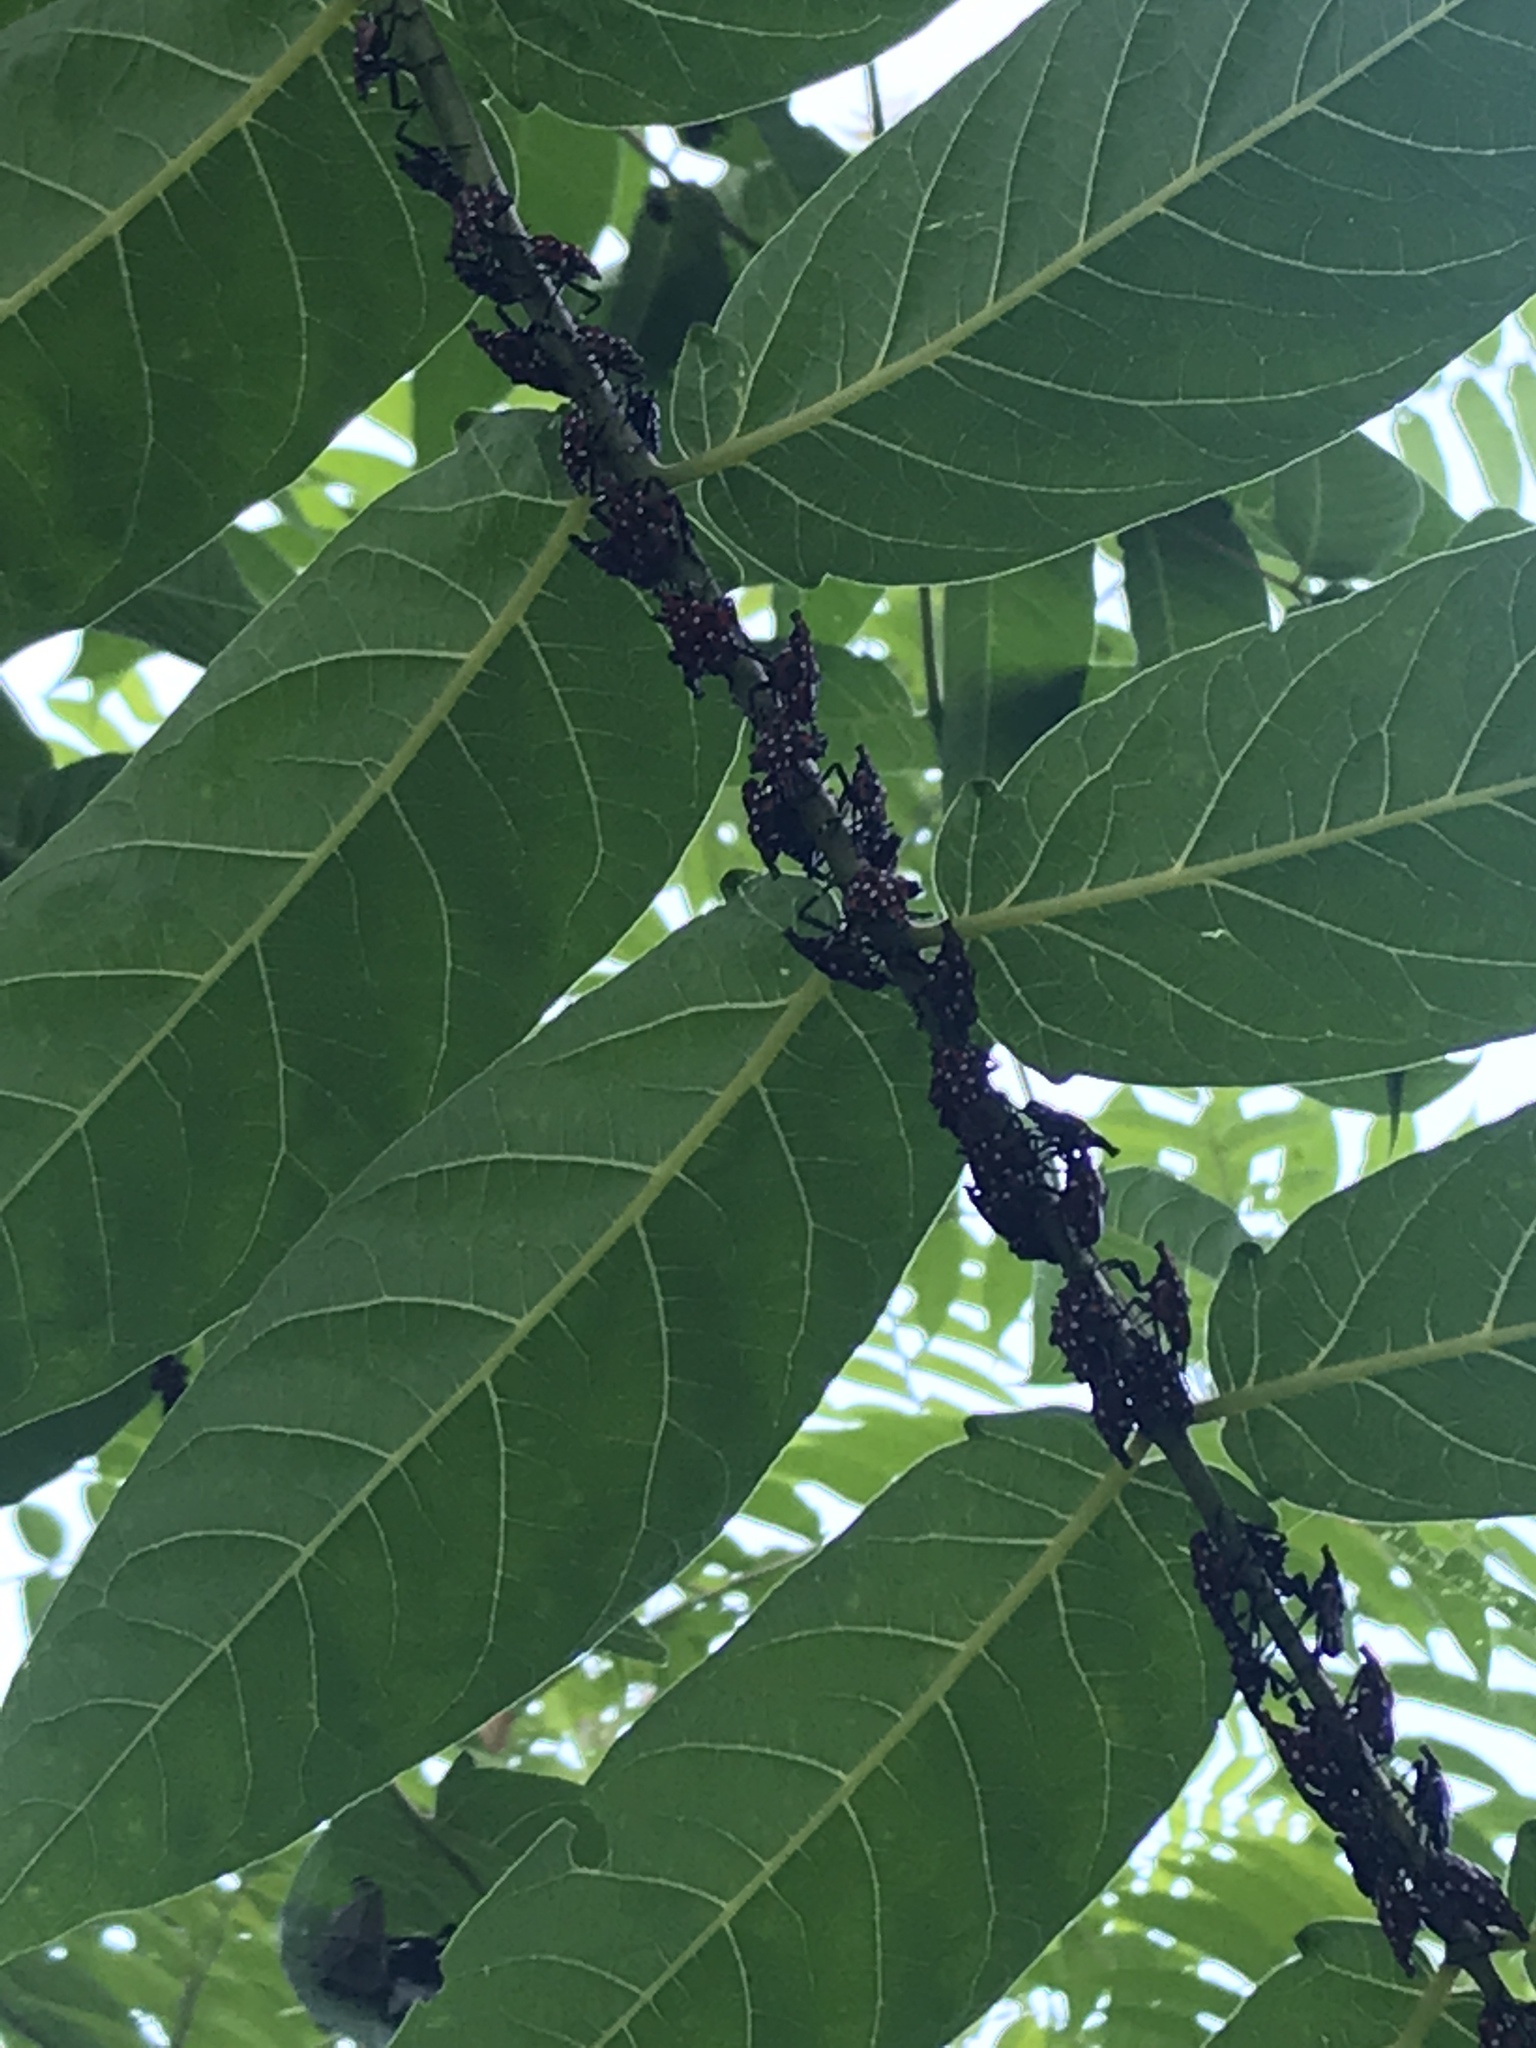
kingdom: Animalia
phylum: Arthropoda
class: Insecta
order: Hemiptera
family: Fulgoridae
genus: Lycorma
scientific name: Lycorma delicatula
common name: Spotted lanternfly
